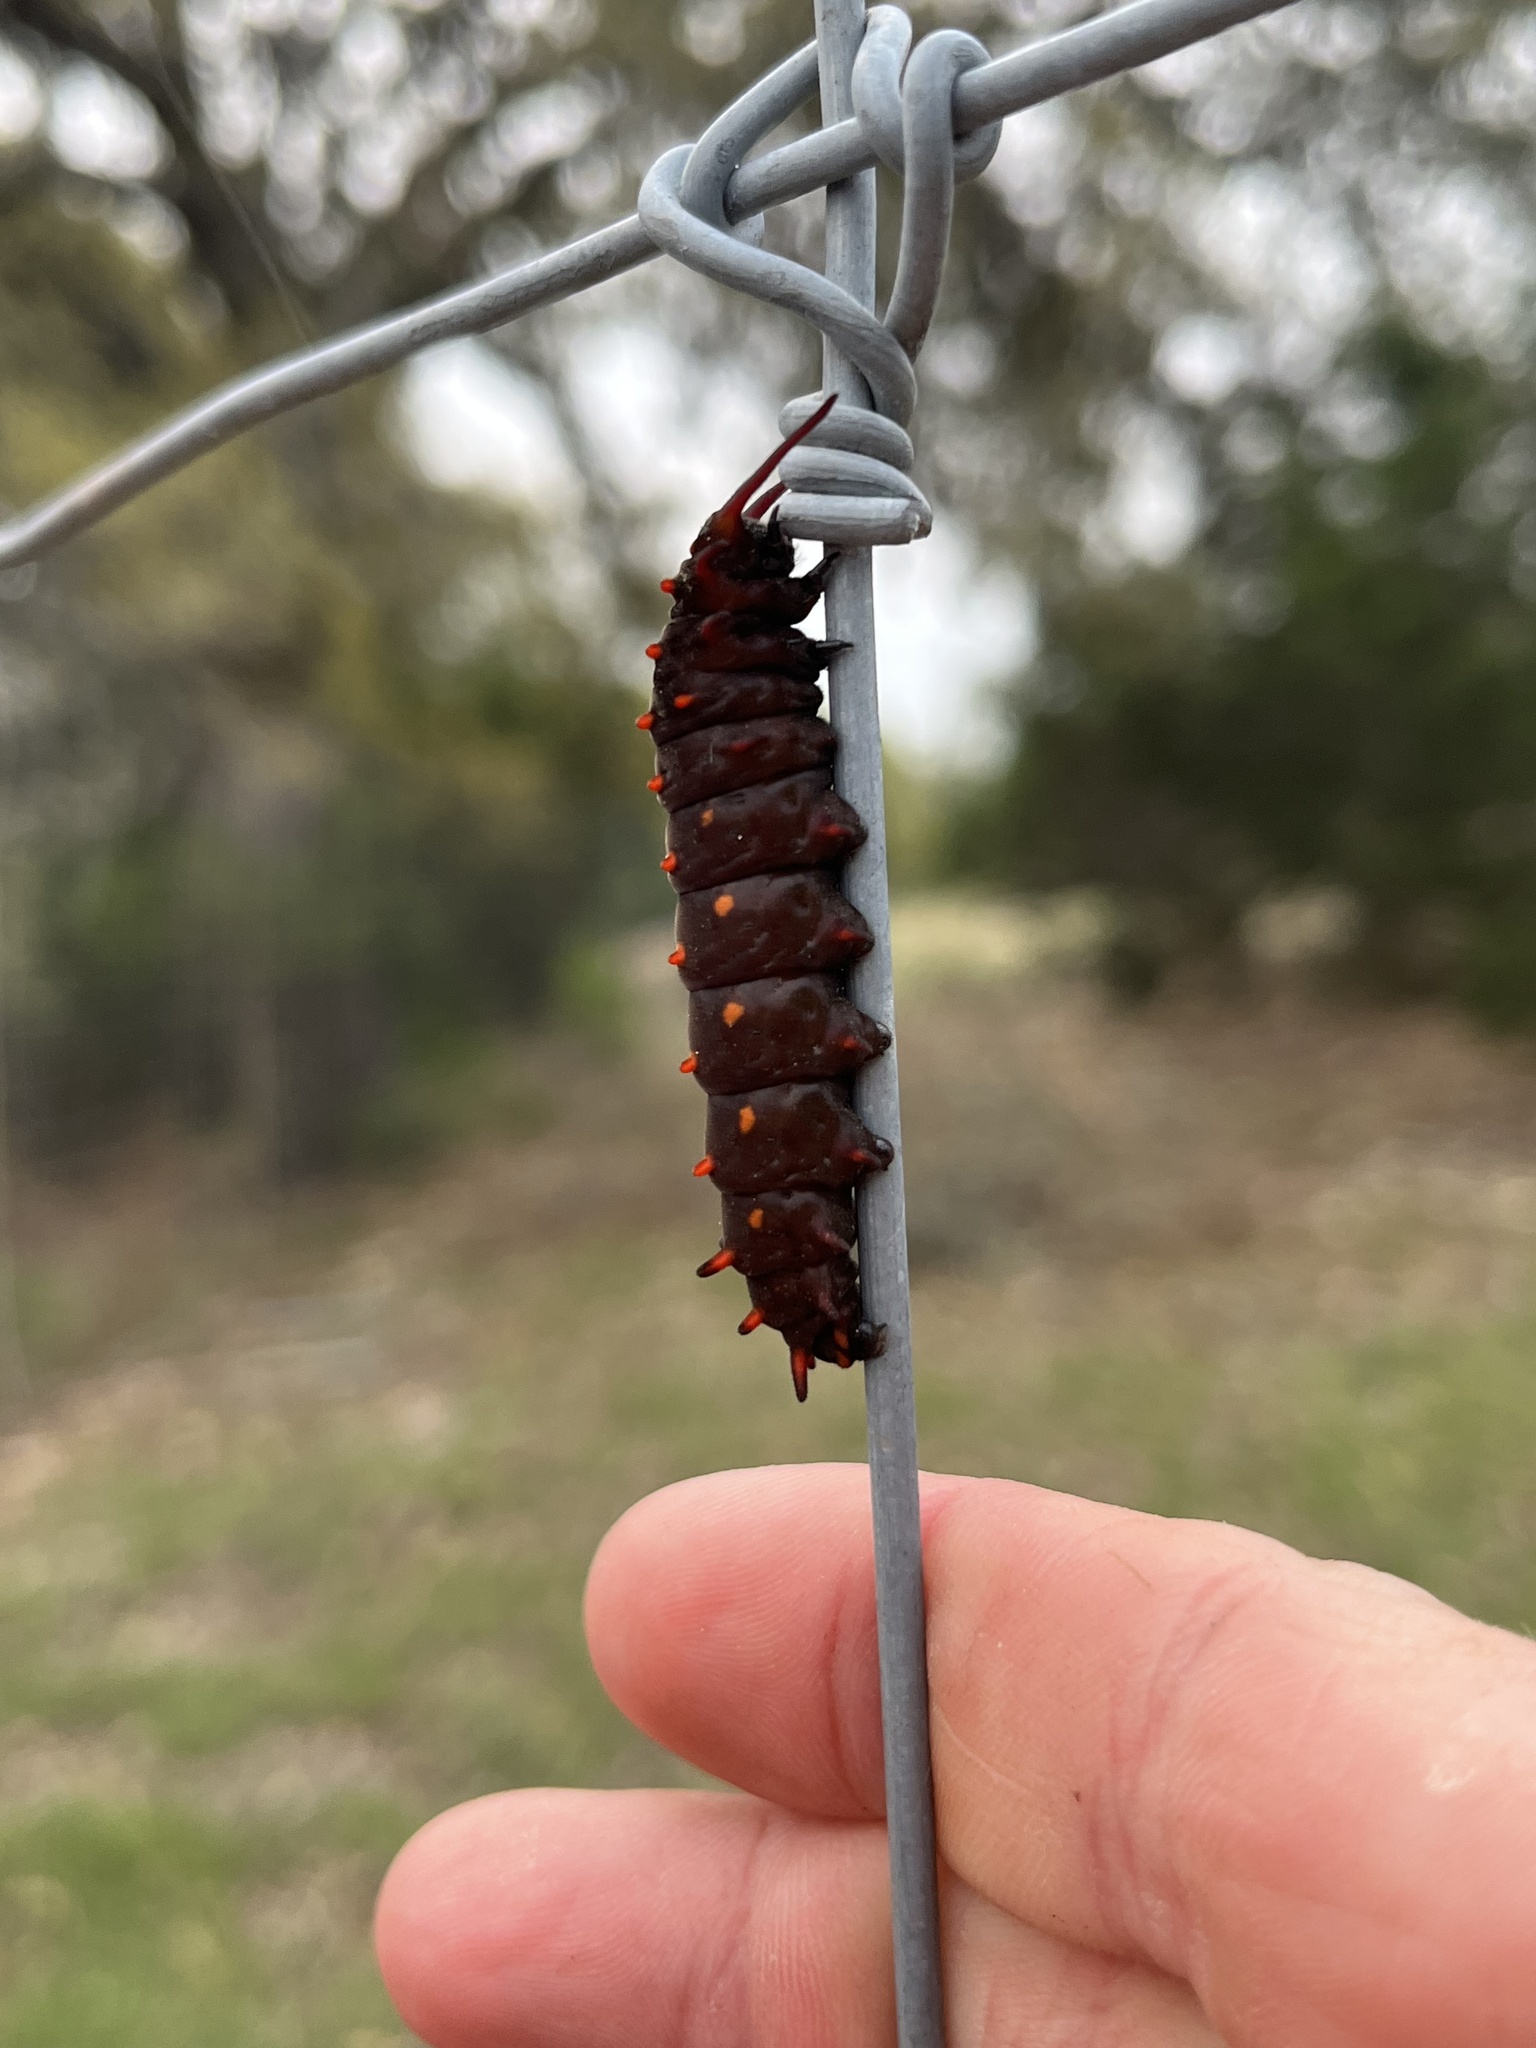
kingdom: Animalia
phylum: Arthropoda
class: Insecta
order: Lepidoptera
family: Papilionidae
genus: Battus
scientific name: Battus philenor
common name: Pipevine swallowtail
